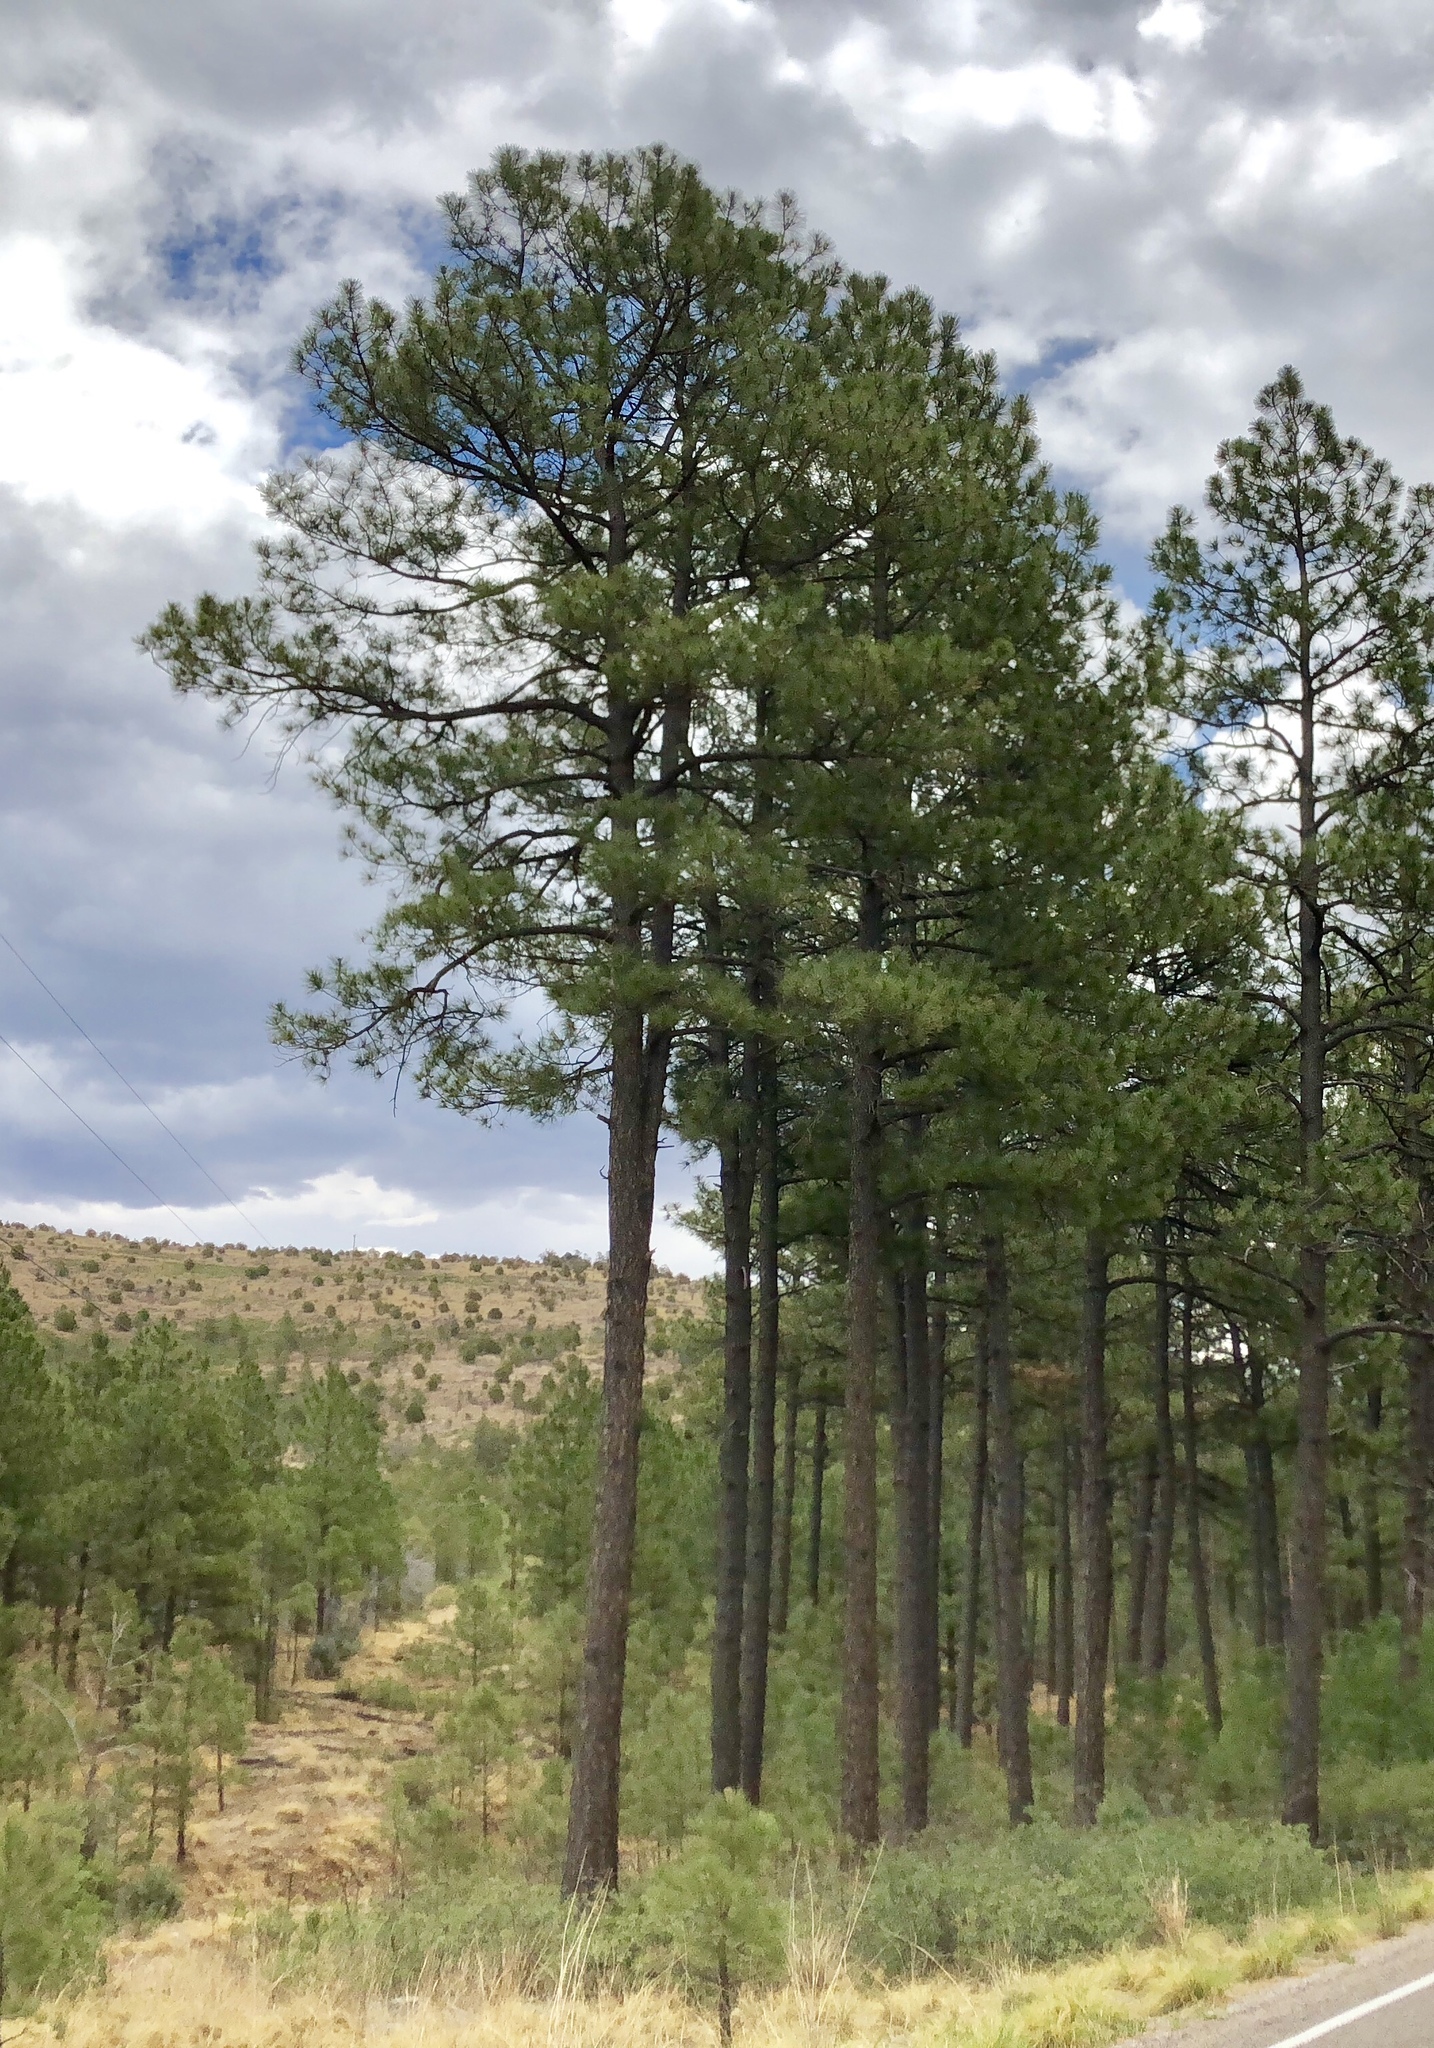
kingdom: Plantae
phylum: Tracheophyta
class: Pinopsida
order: Pinales
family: Pinaceae
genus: Pinus
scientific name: Pinus ponderosa
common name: Western yellow-pine
